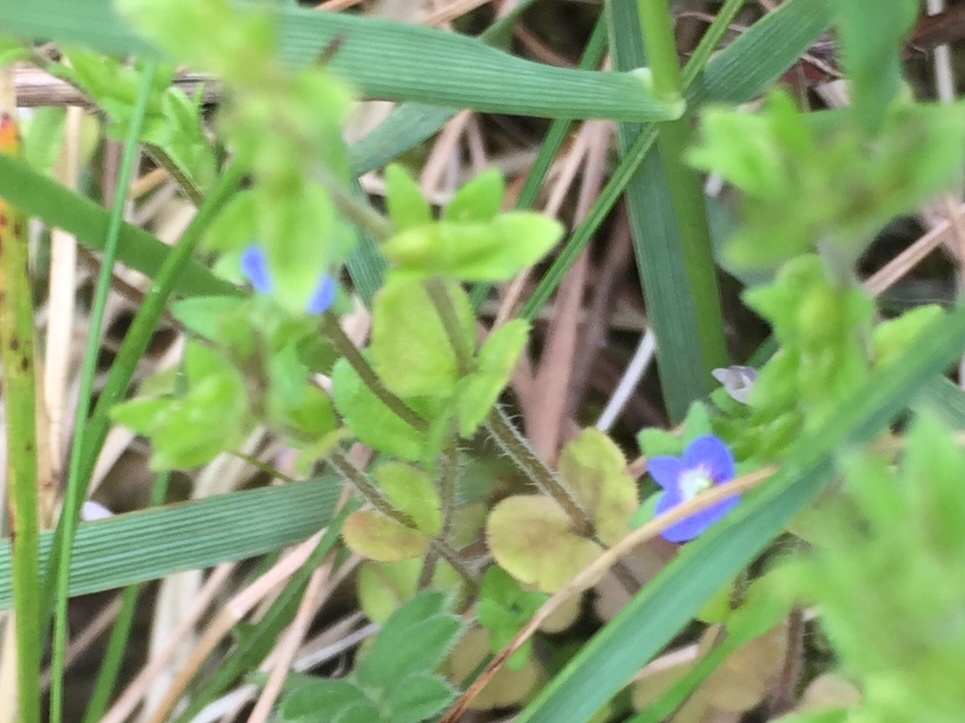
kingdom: Plantae
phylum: Tracheophyta
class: Magnoliopsida
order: Lamiales
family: Plantaginaceae
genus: Veronica
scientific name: Veronica arvensis
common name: Corn speedwell
